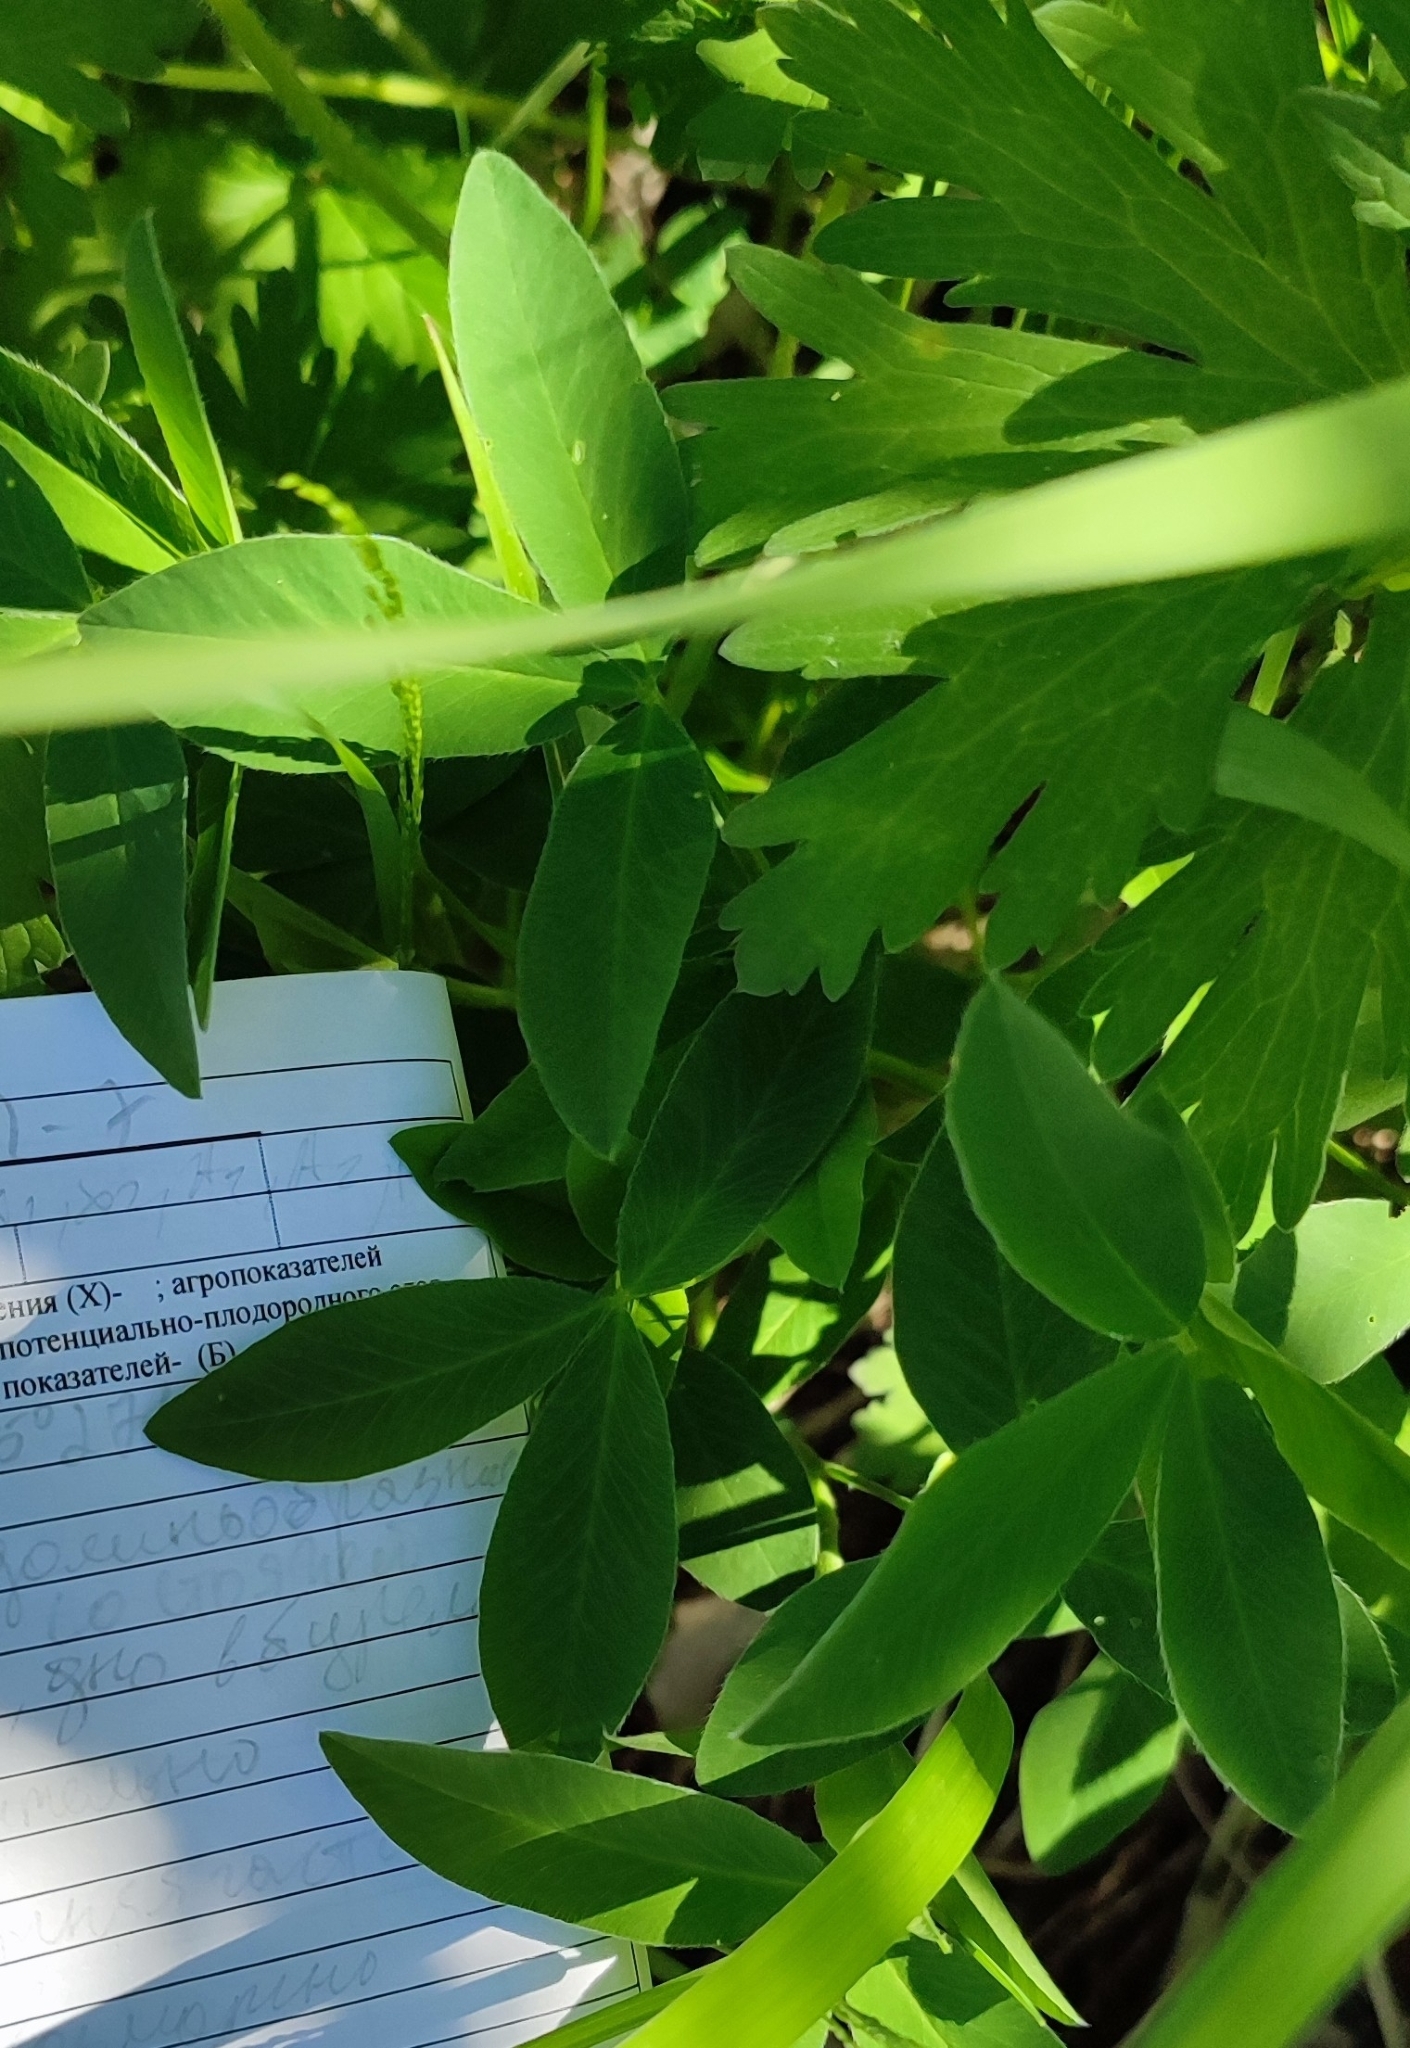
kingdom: Plantae
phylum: Tracheophyta
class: Magnoliopsida
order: Fabales
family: Fabaceae
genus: Trifolium
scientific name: Trifolium montanum
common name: Mountain clover
